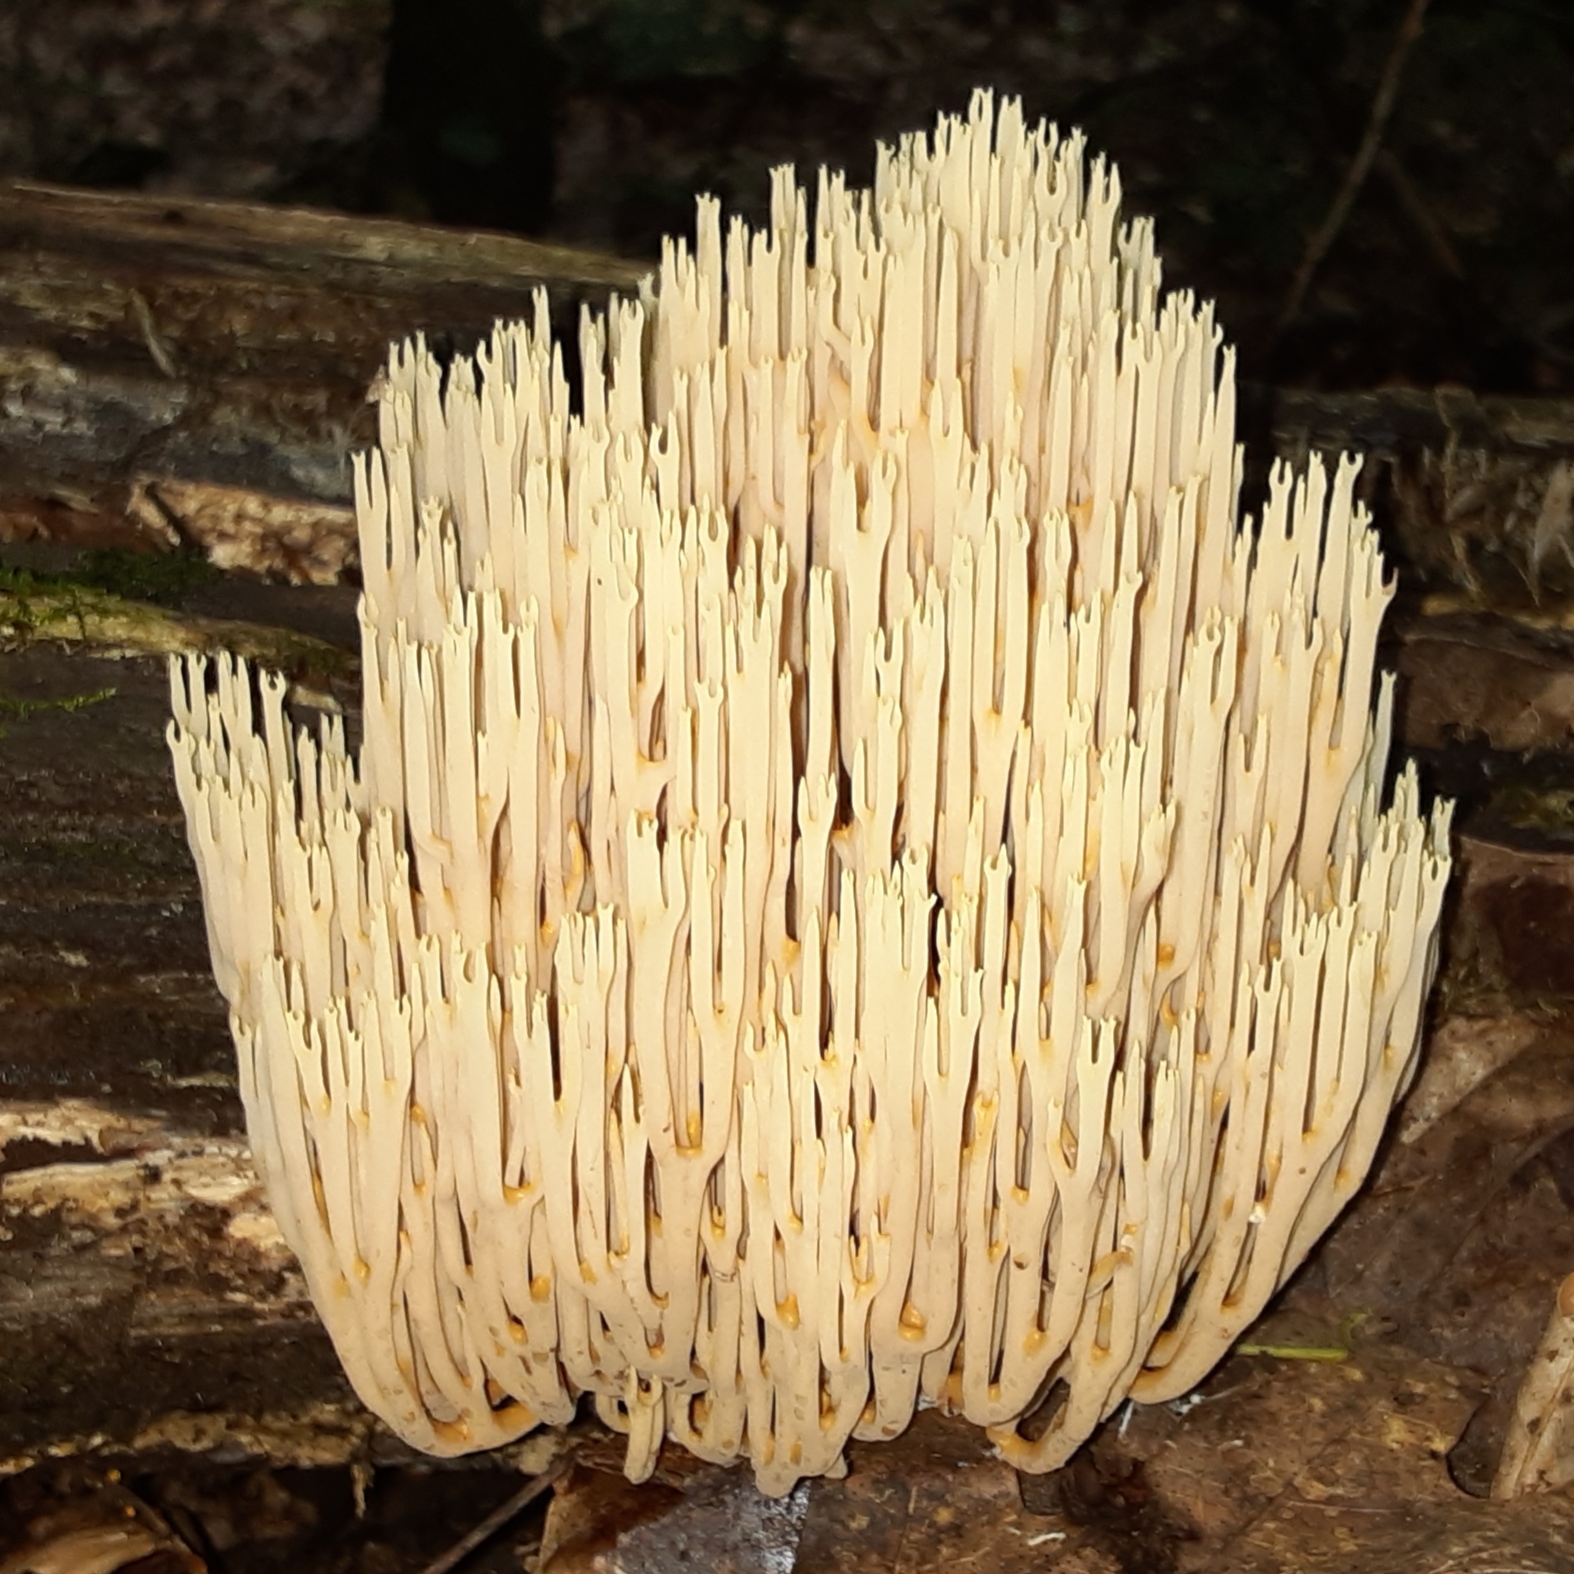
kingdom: Fungi
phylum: Basidiomycota
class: Agaricomycetes
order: Gomphales
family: Gomphaceae
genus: Ramaria
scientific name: Ramaria stricta
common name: Upright coral
